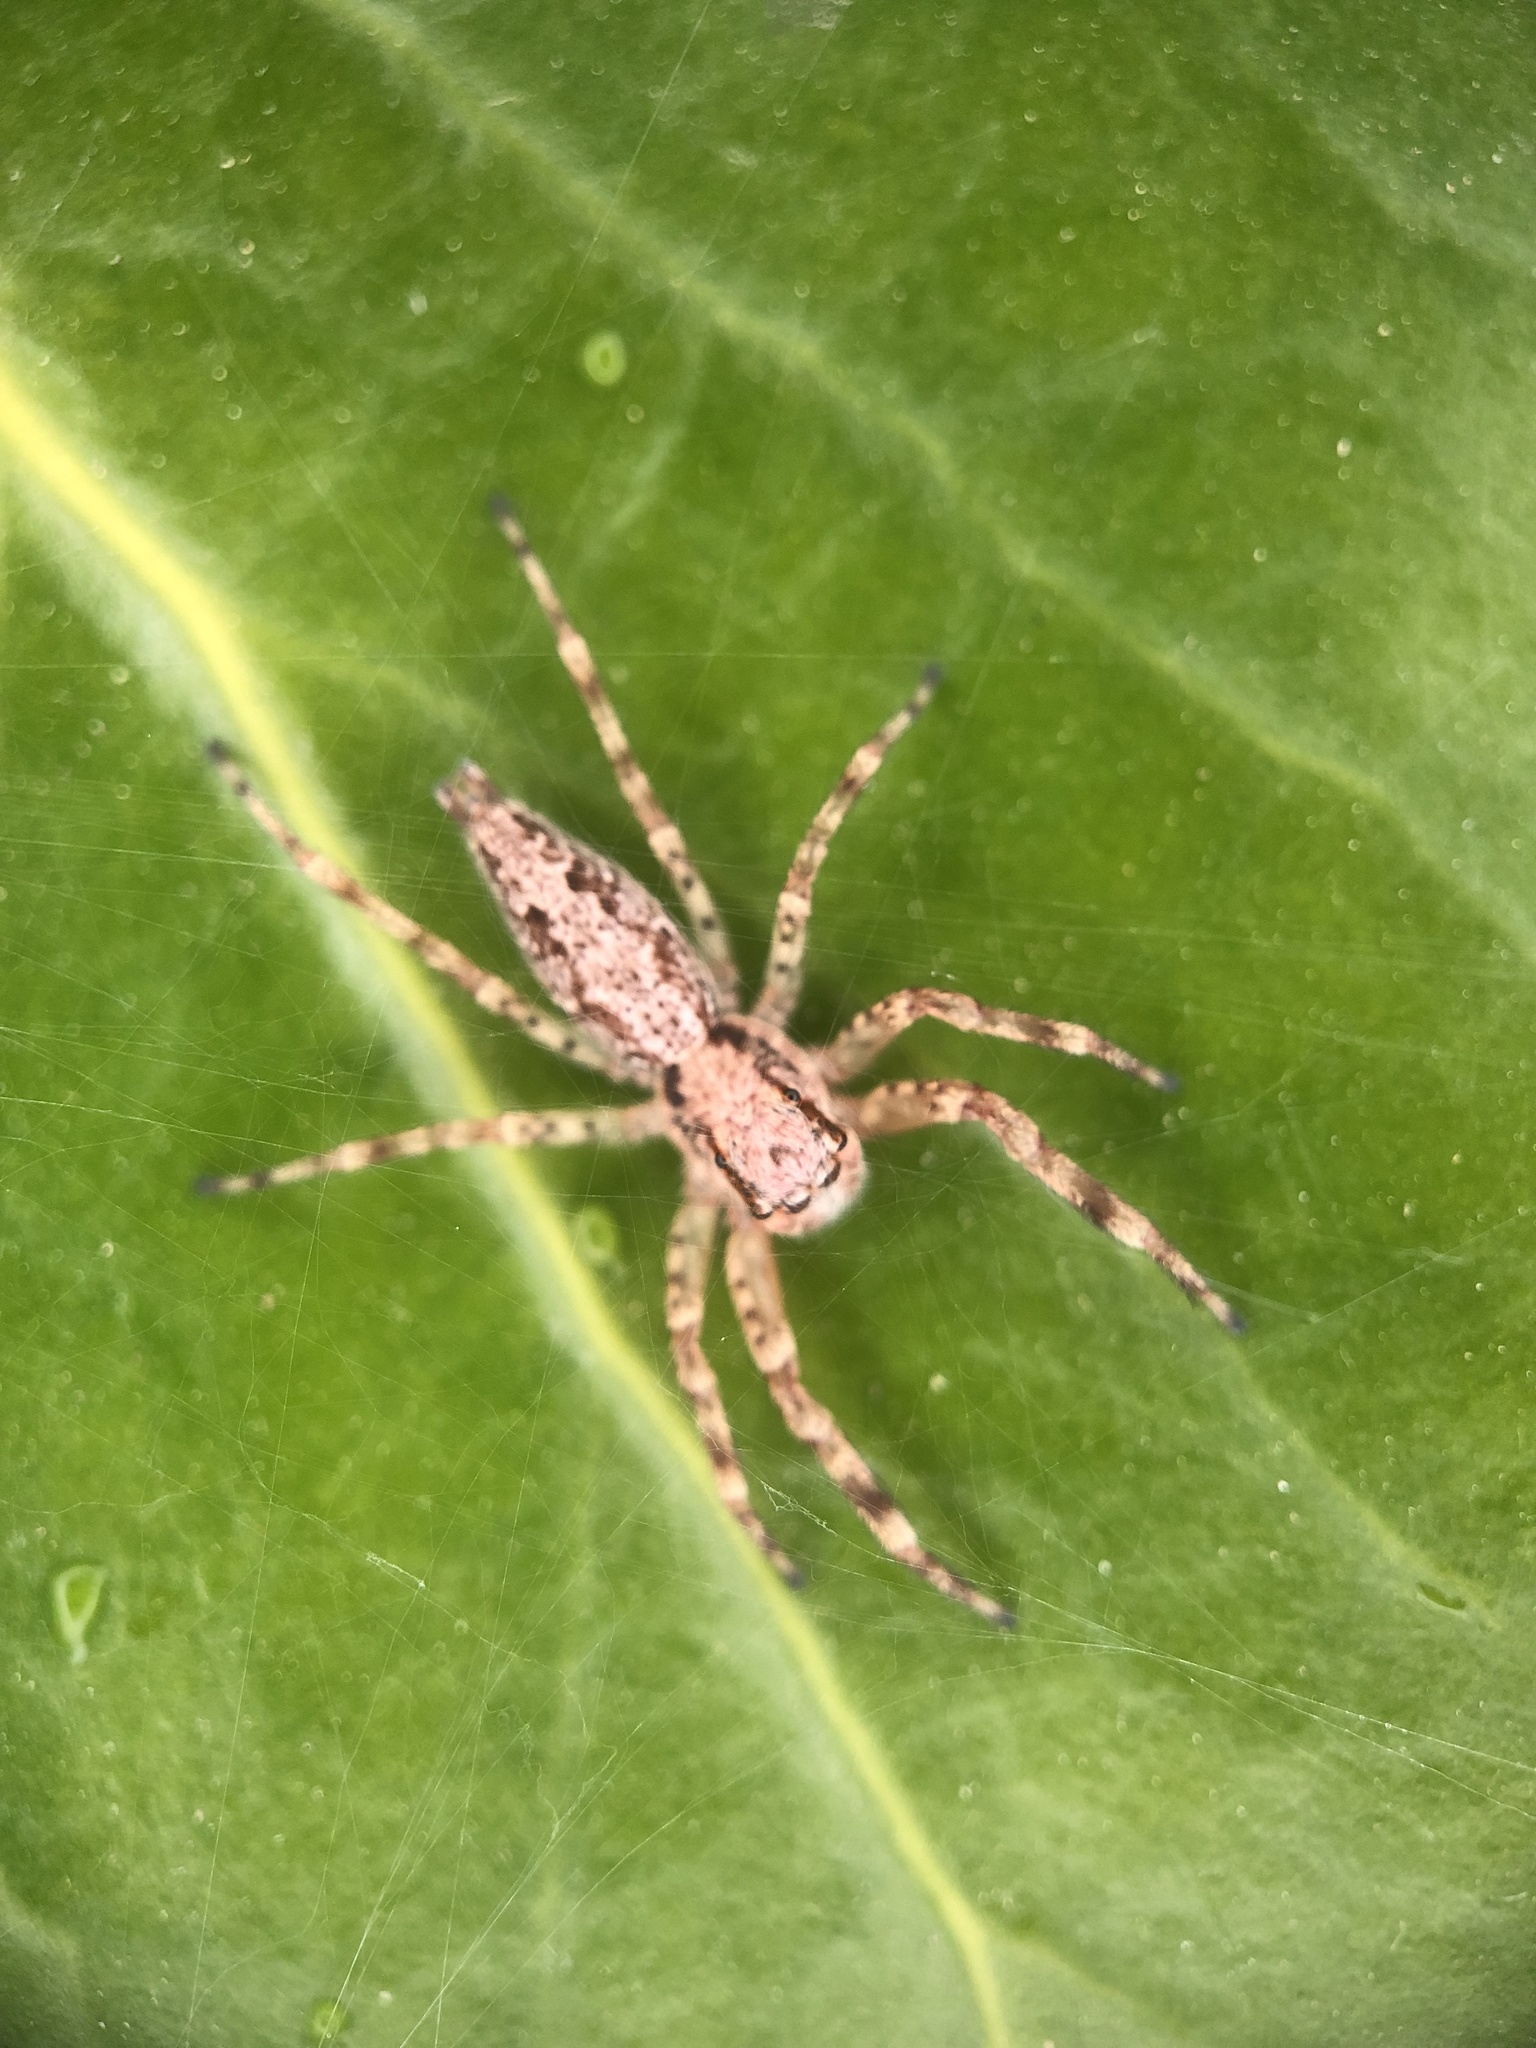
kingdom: Animalia
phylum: Arthropoda
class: Arachnida
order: Araneae
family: Salticidae
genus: Helpis
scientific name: Helpis minitabunda
